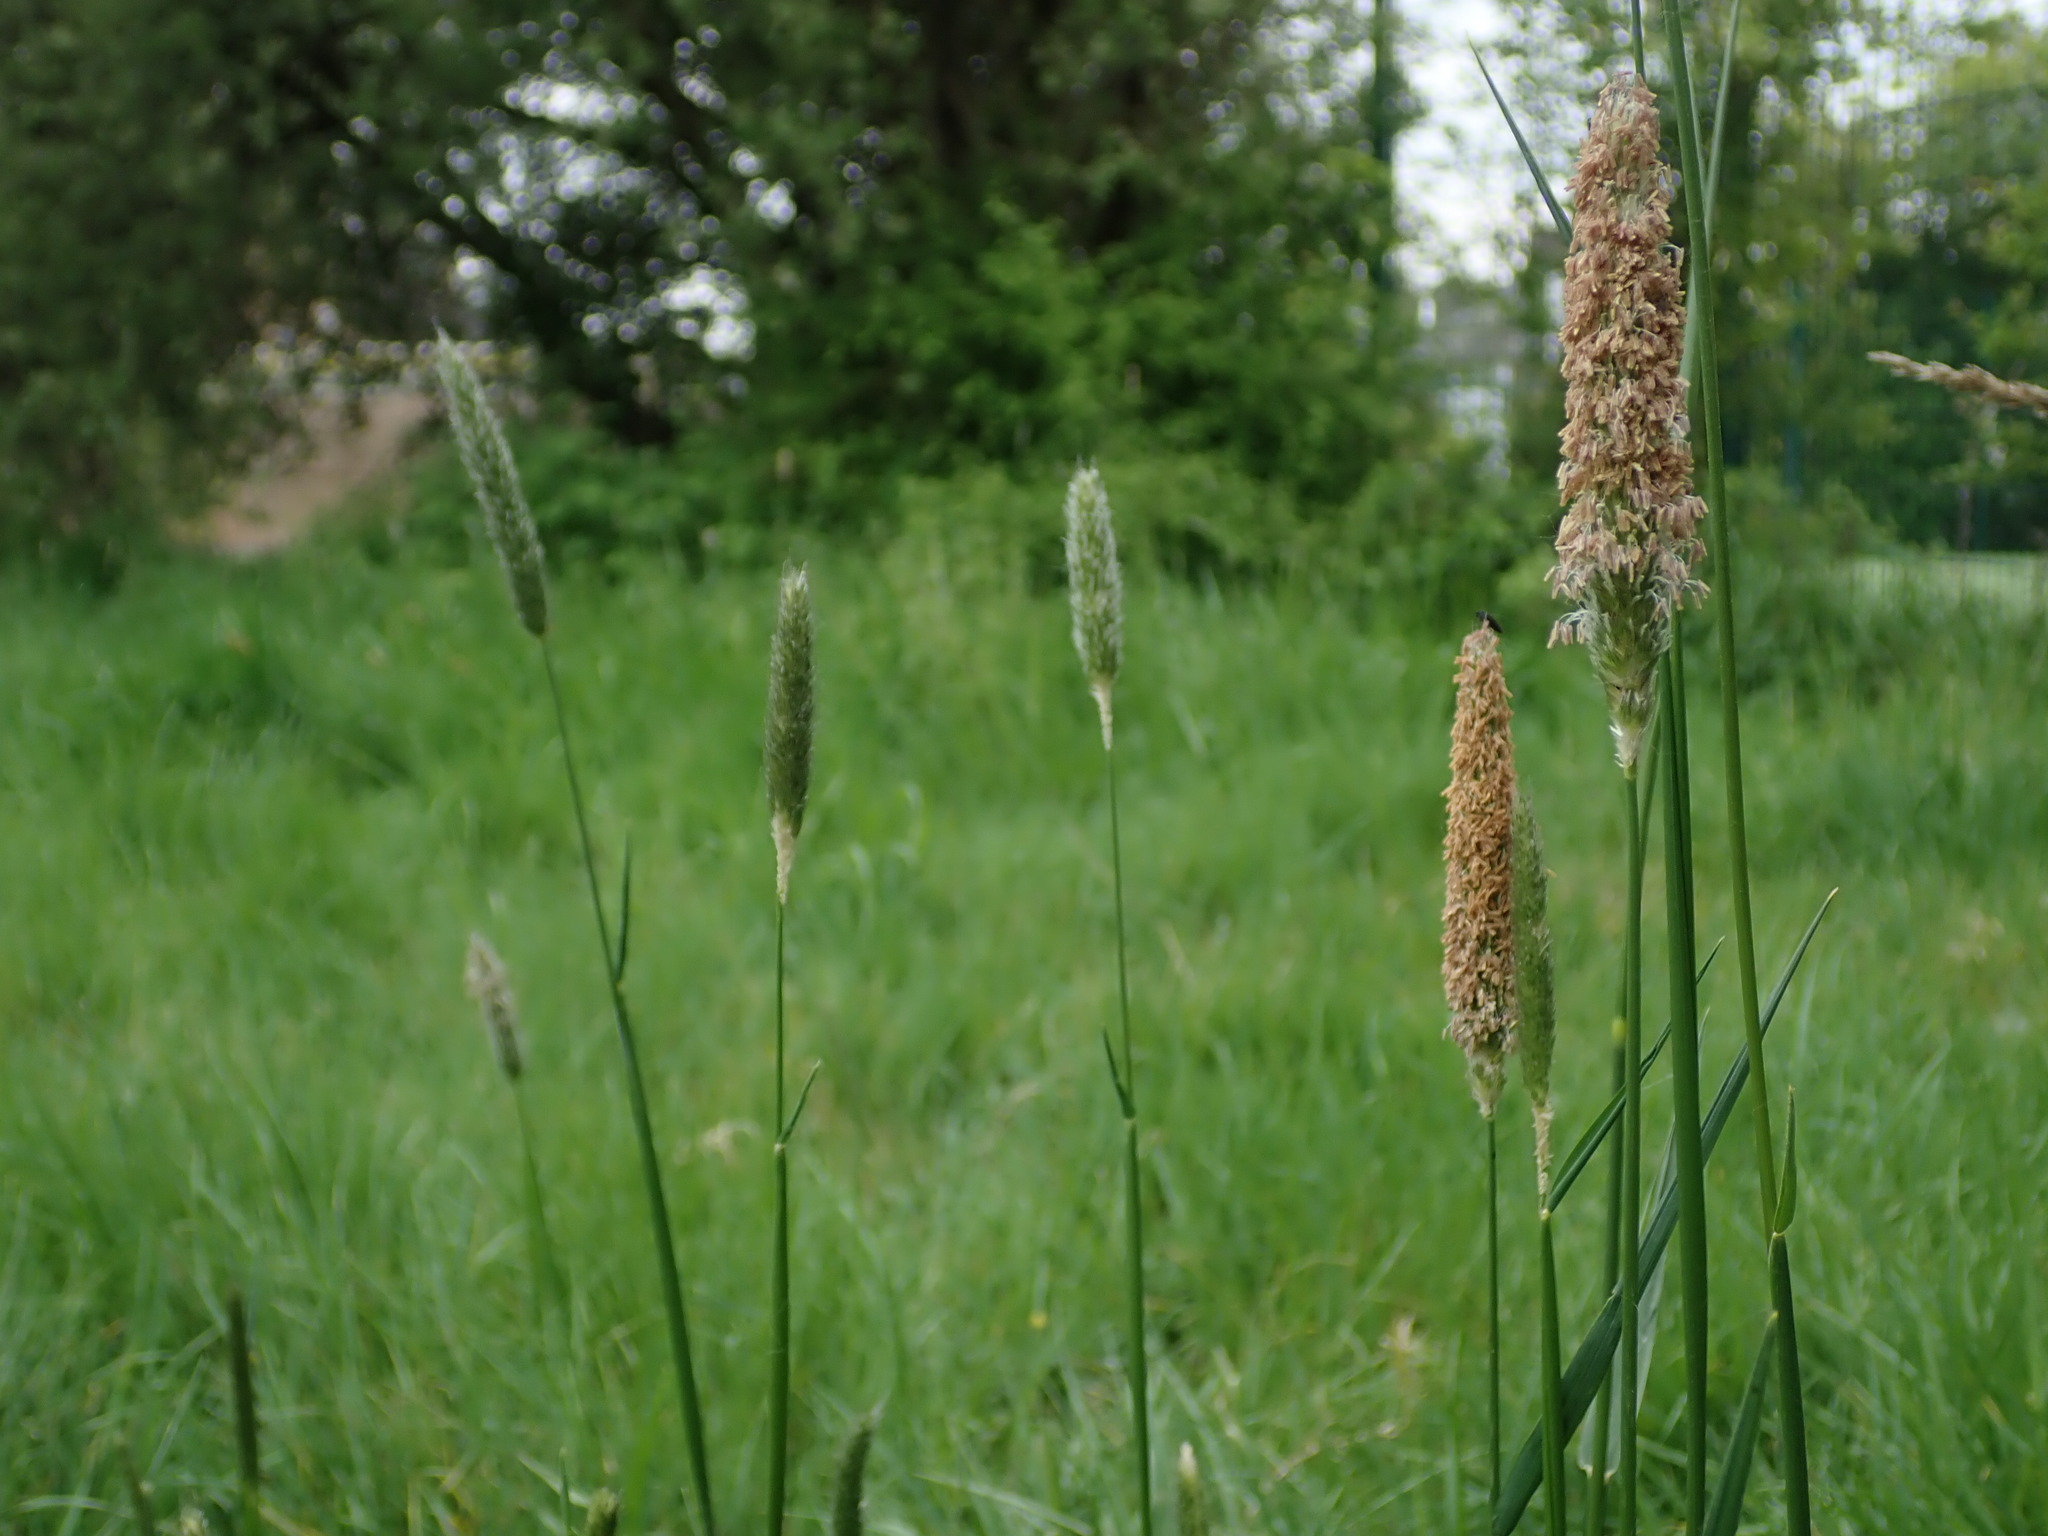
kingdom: Plantae
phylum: Tracheophyta
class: Liliopsida
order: Poales
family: Poaceae
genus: Alopecurus
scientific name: Alopecurus pratensis
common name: Meadow foxtail
